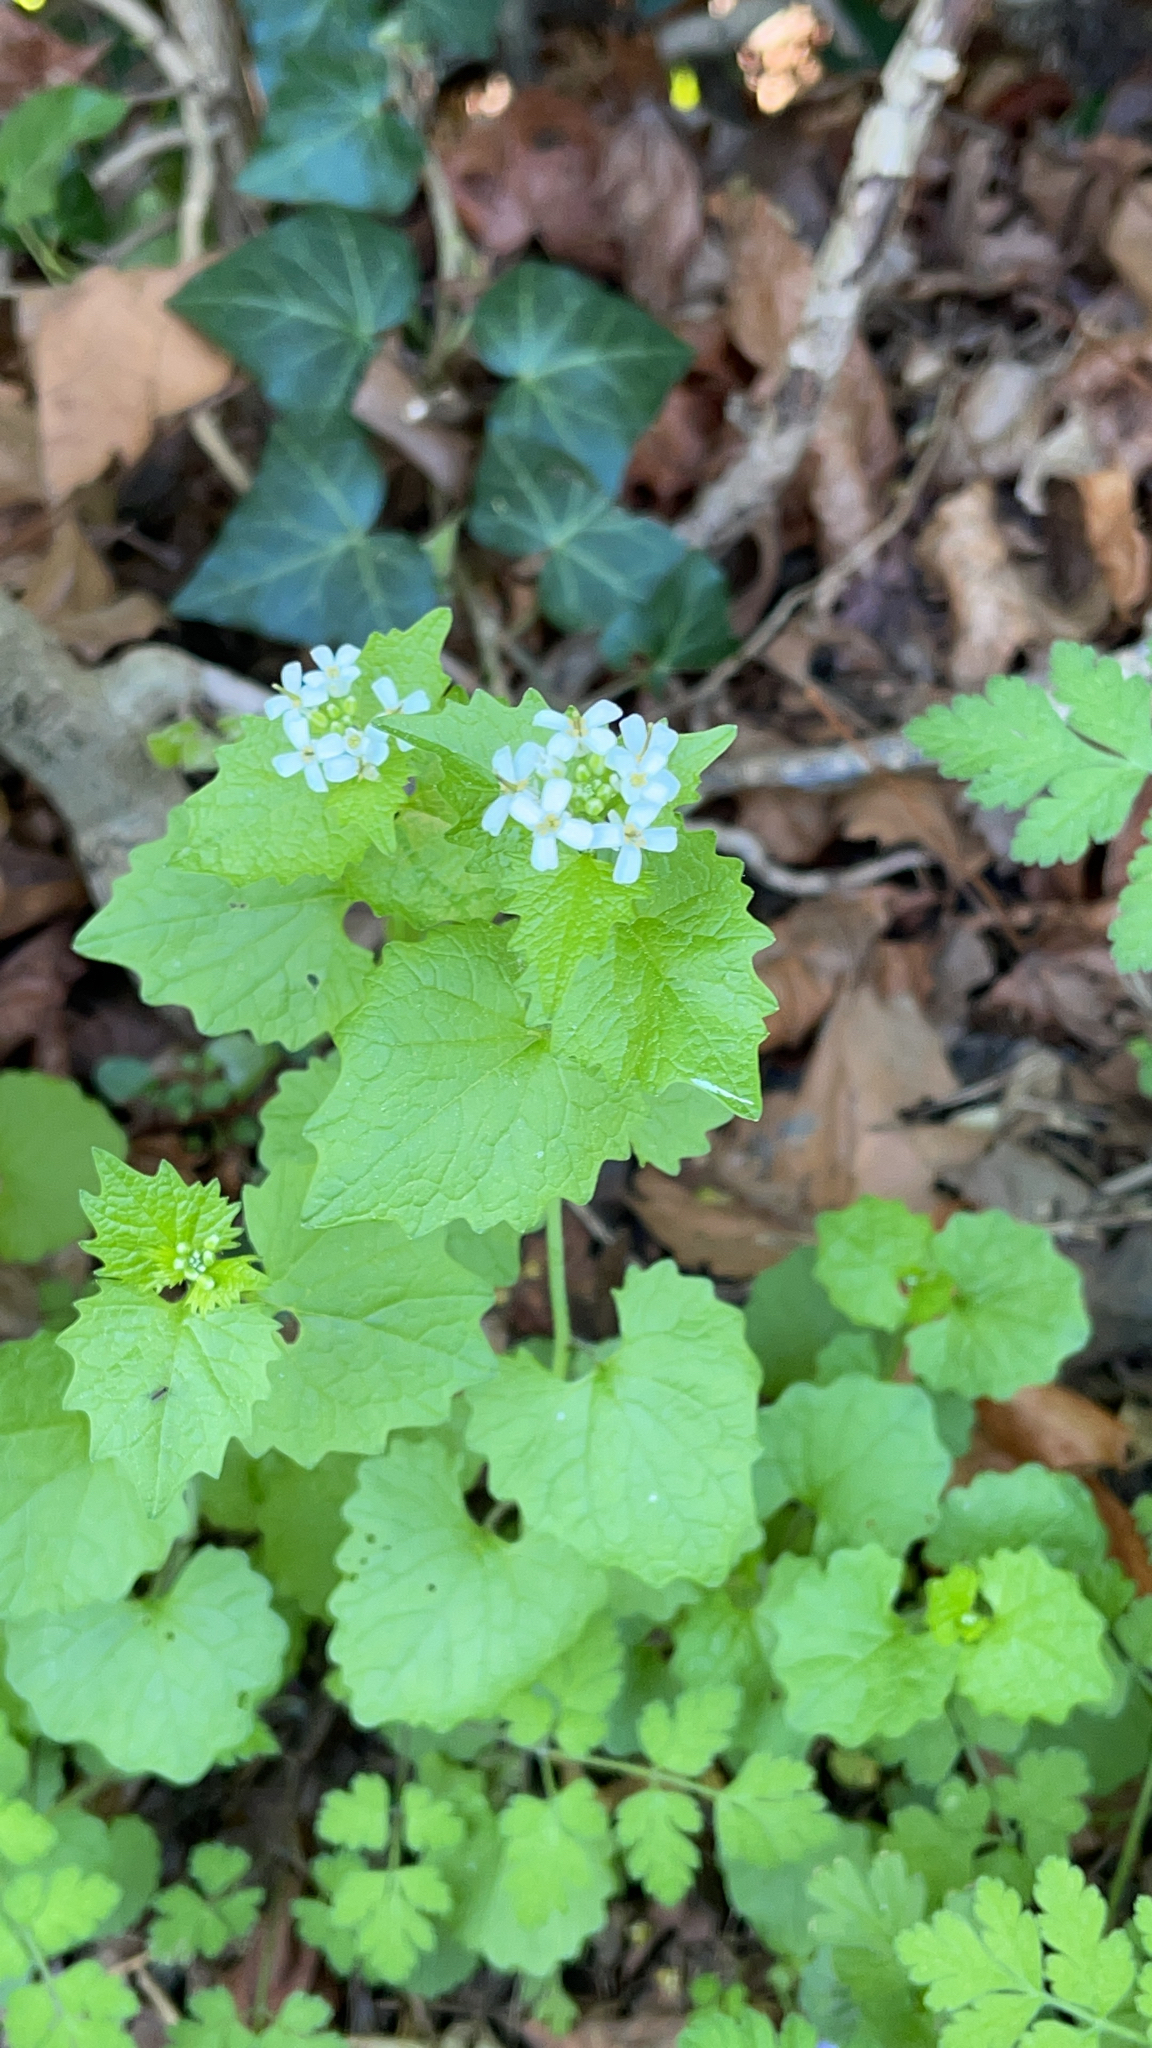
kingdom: Plantae
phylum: Tracheophyta
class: Magnoliopsida
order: Brassicales
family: Brassicaceae
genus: Alliaria
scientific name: Alliaria petiolata
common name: Garlic mustard
